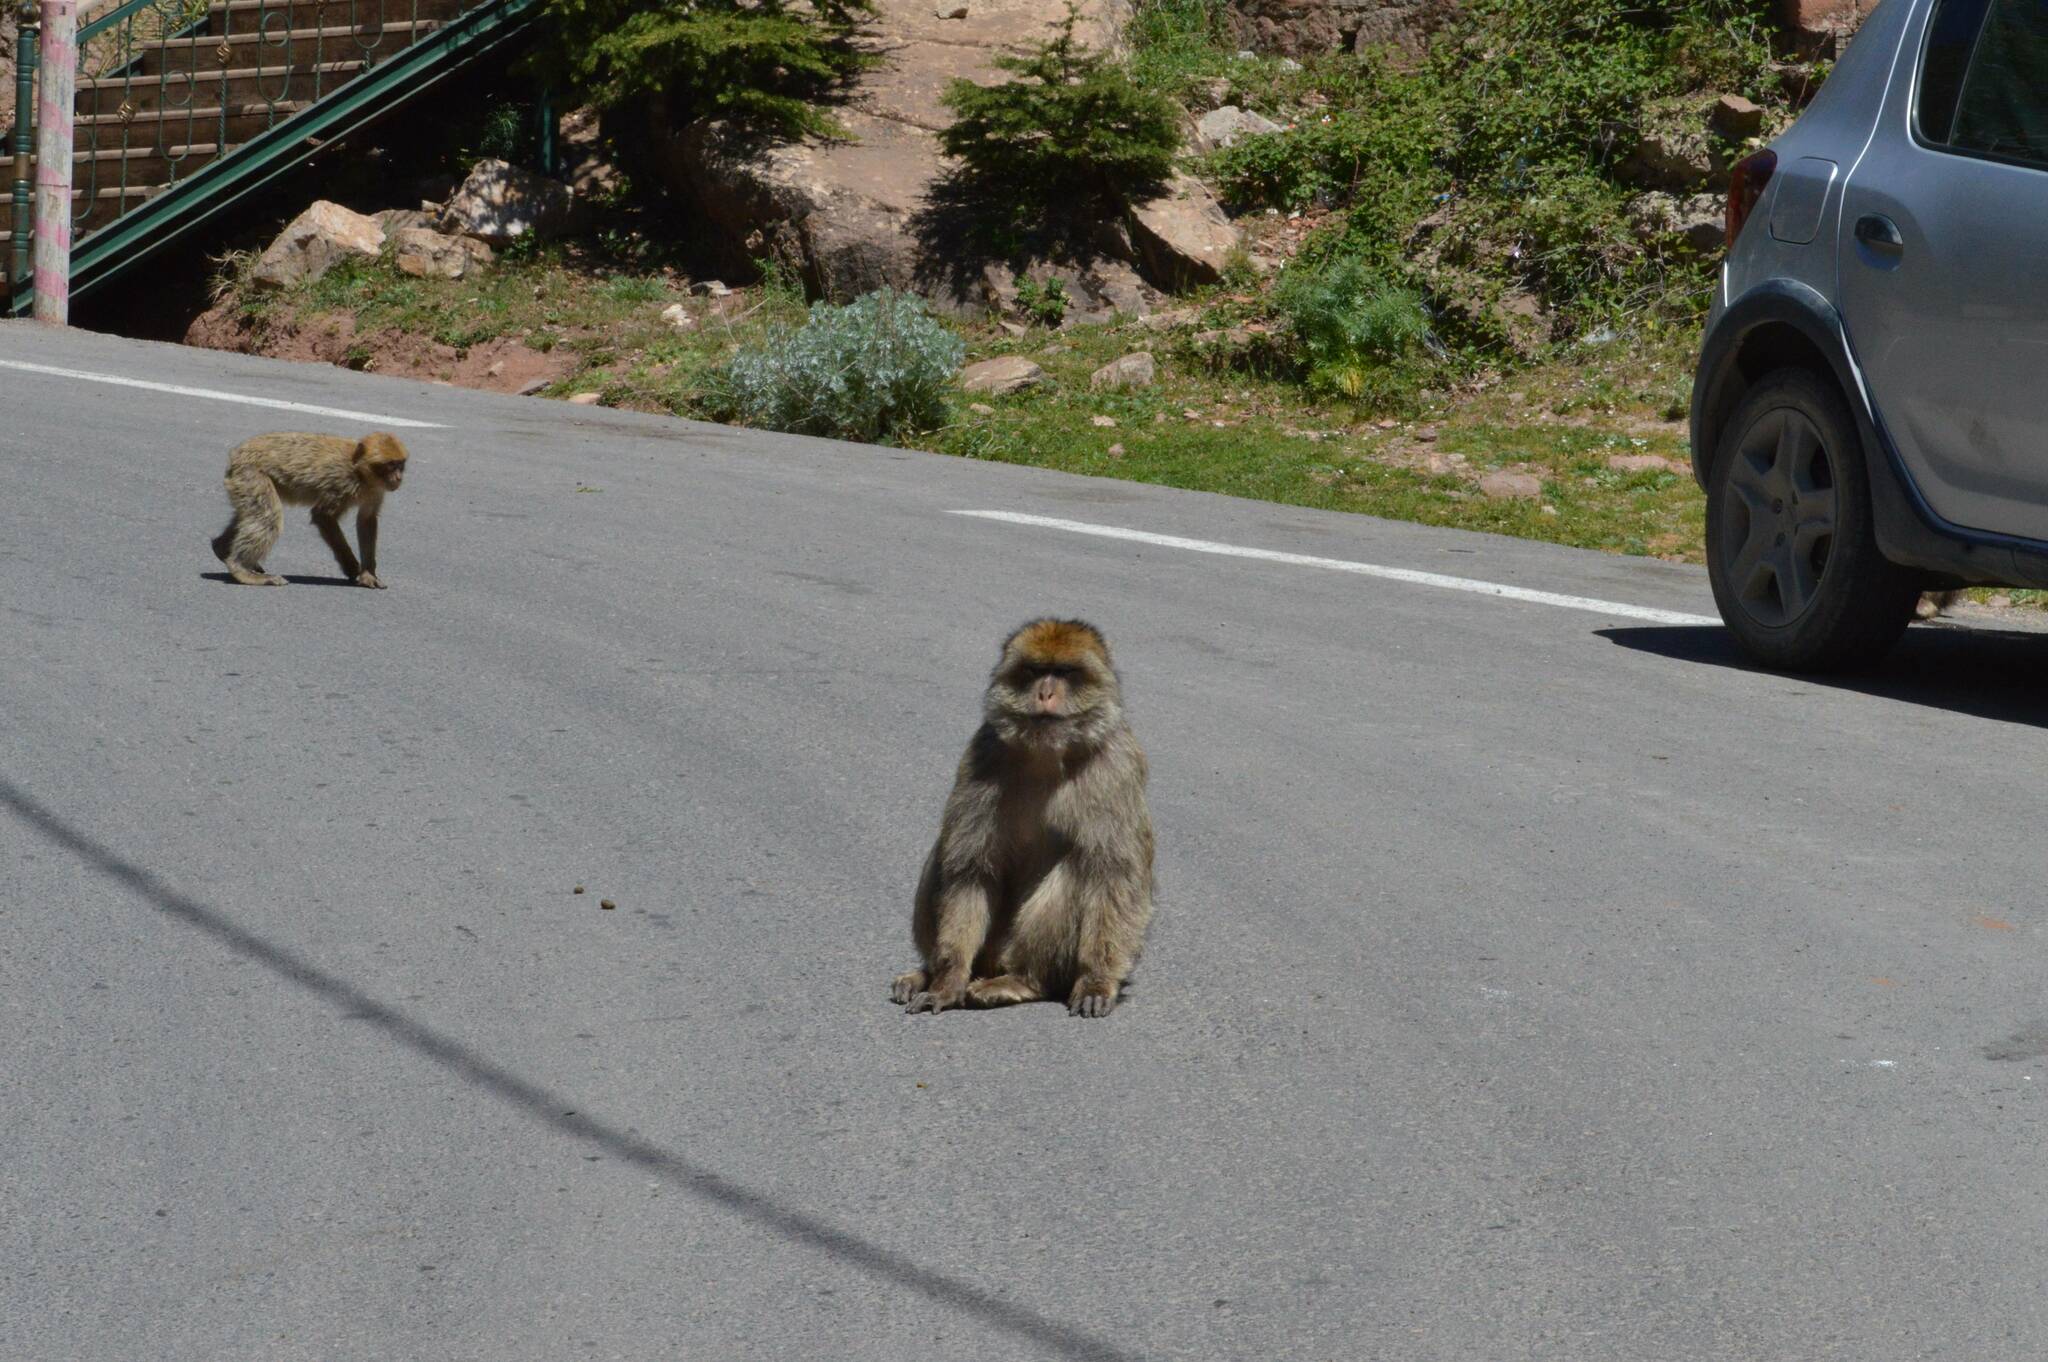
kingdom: Animalia
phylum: Chordata
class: Mammalia
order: Primates
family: Cercopithecidae
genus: Macaca
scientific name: Macaca sylvanus
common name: Barbary macaque
